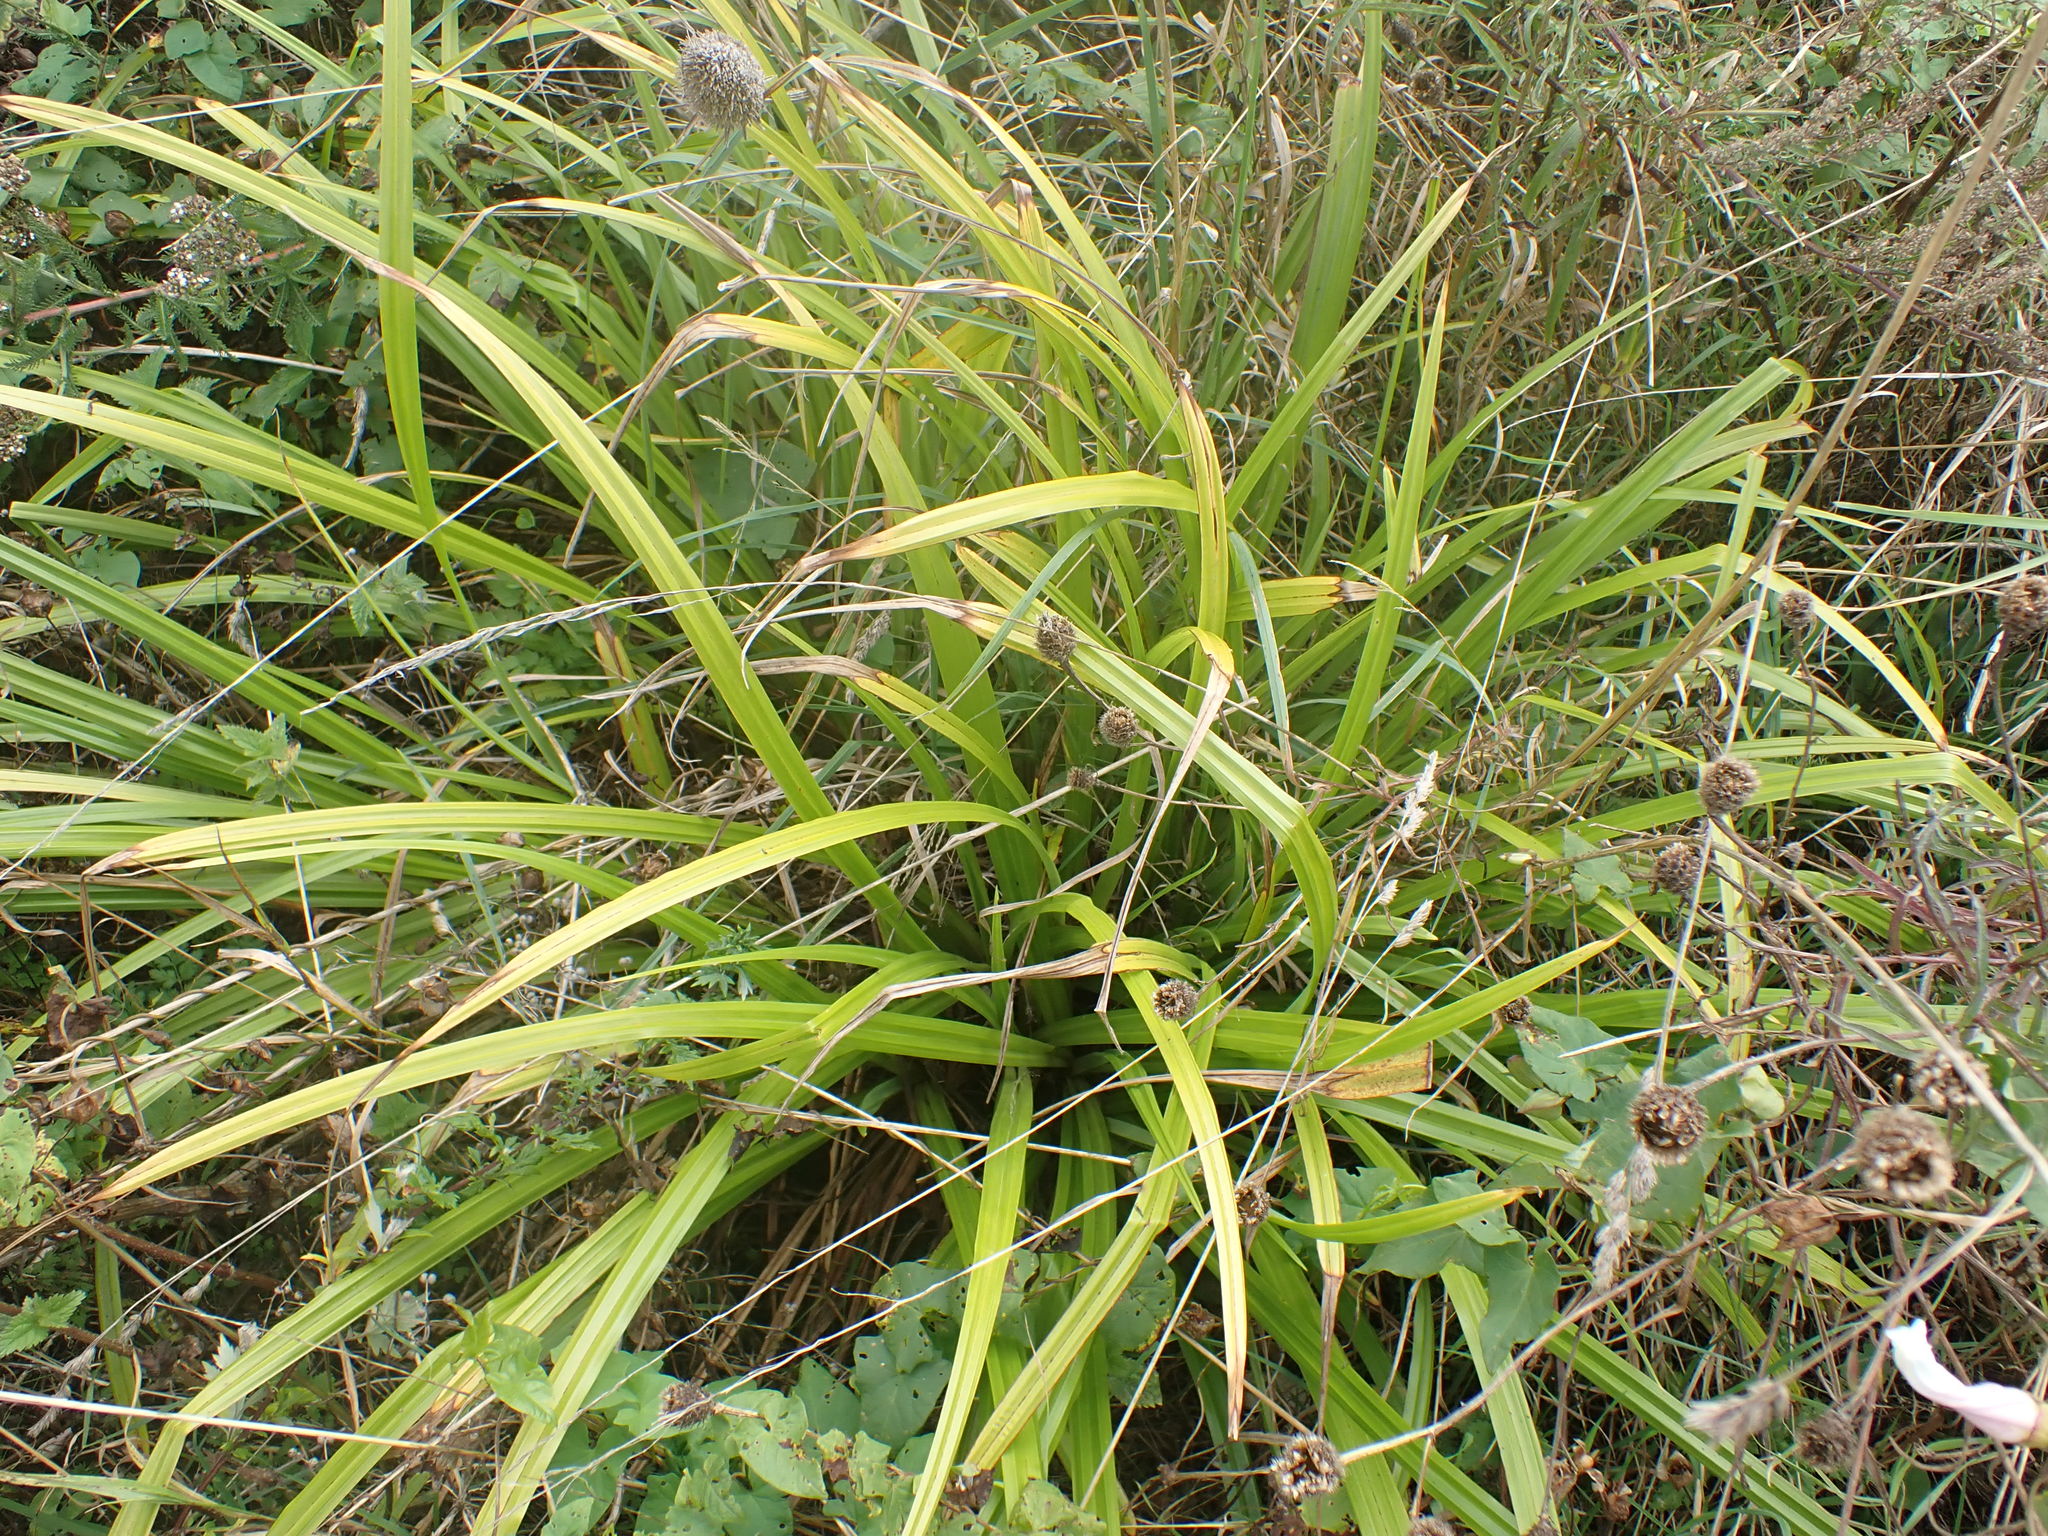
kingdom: Plantae
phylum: Tracheophyta
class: Liliopsida
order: Poales
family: Cyperaceae
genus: Carex
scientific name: Carex pendula
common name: Pendulous sedge
